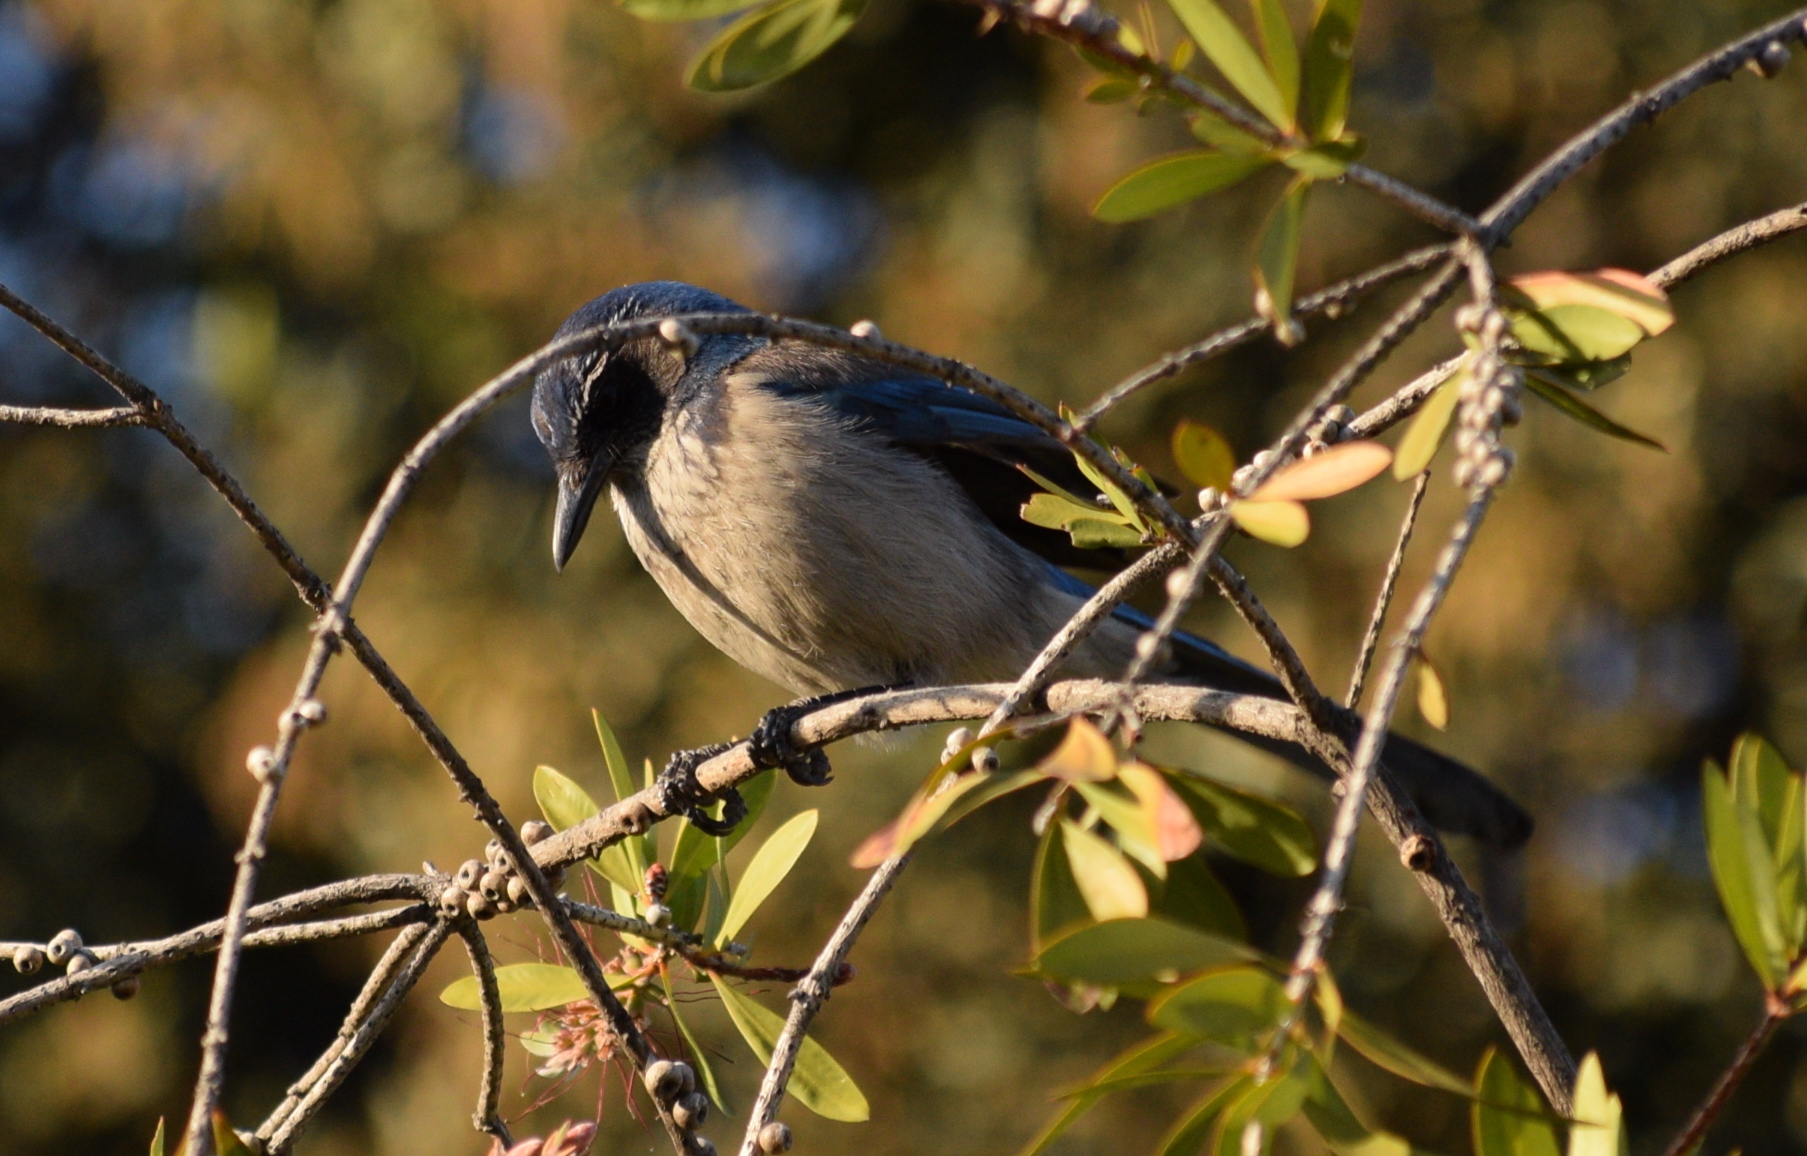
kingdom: Animalia
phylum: Chordata
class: Aves
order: Passeriformes
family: Corvidae
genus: Aphelocoma
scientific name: Aphelocoma californica
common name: California scrub-jay
